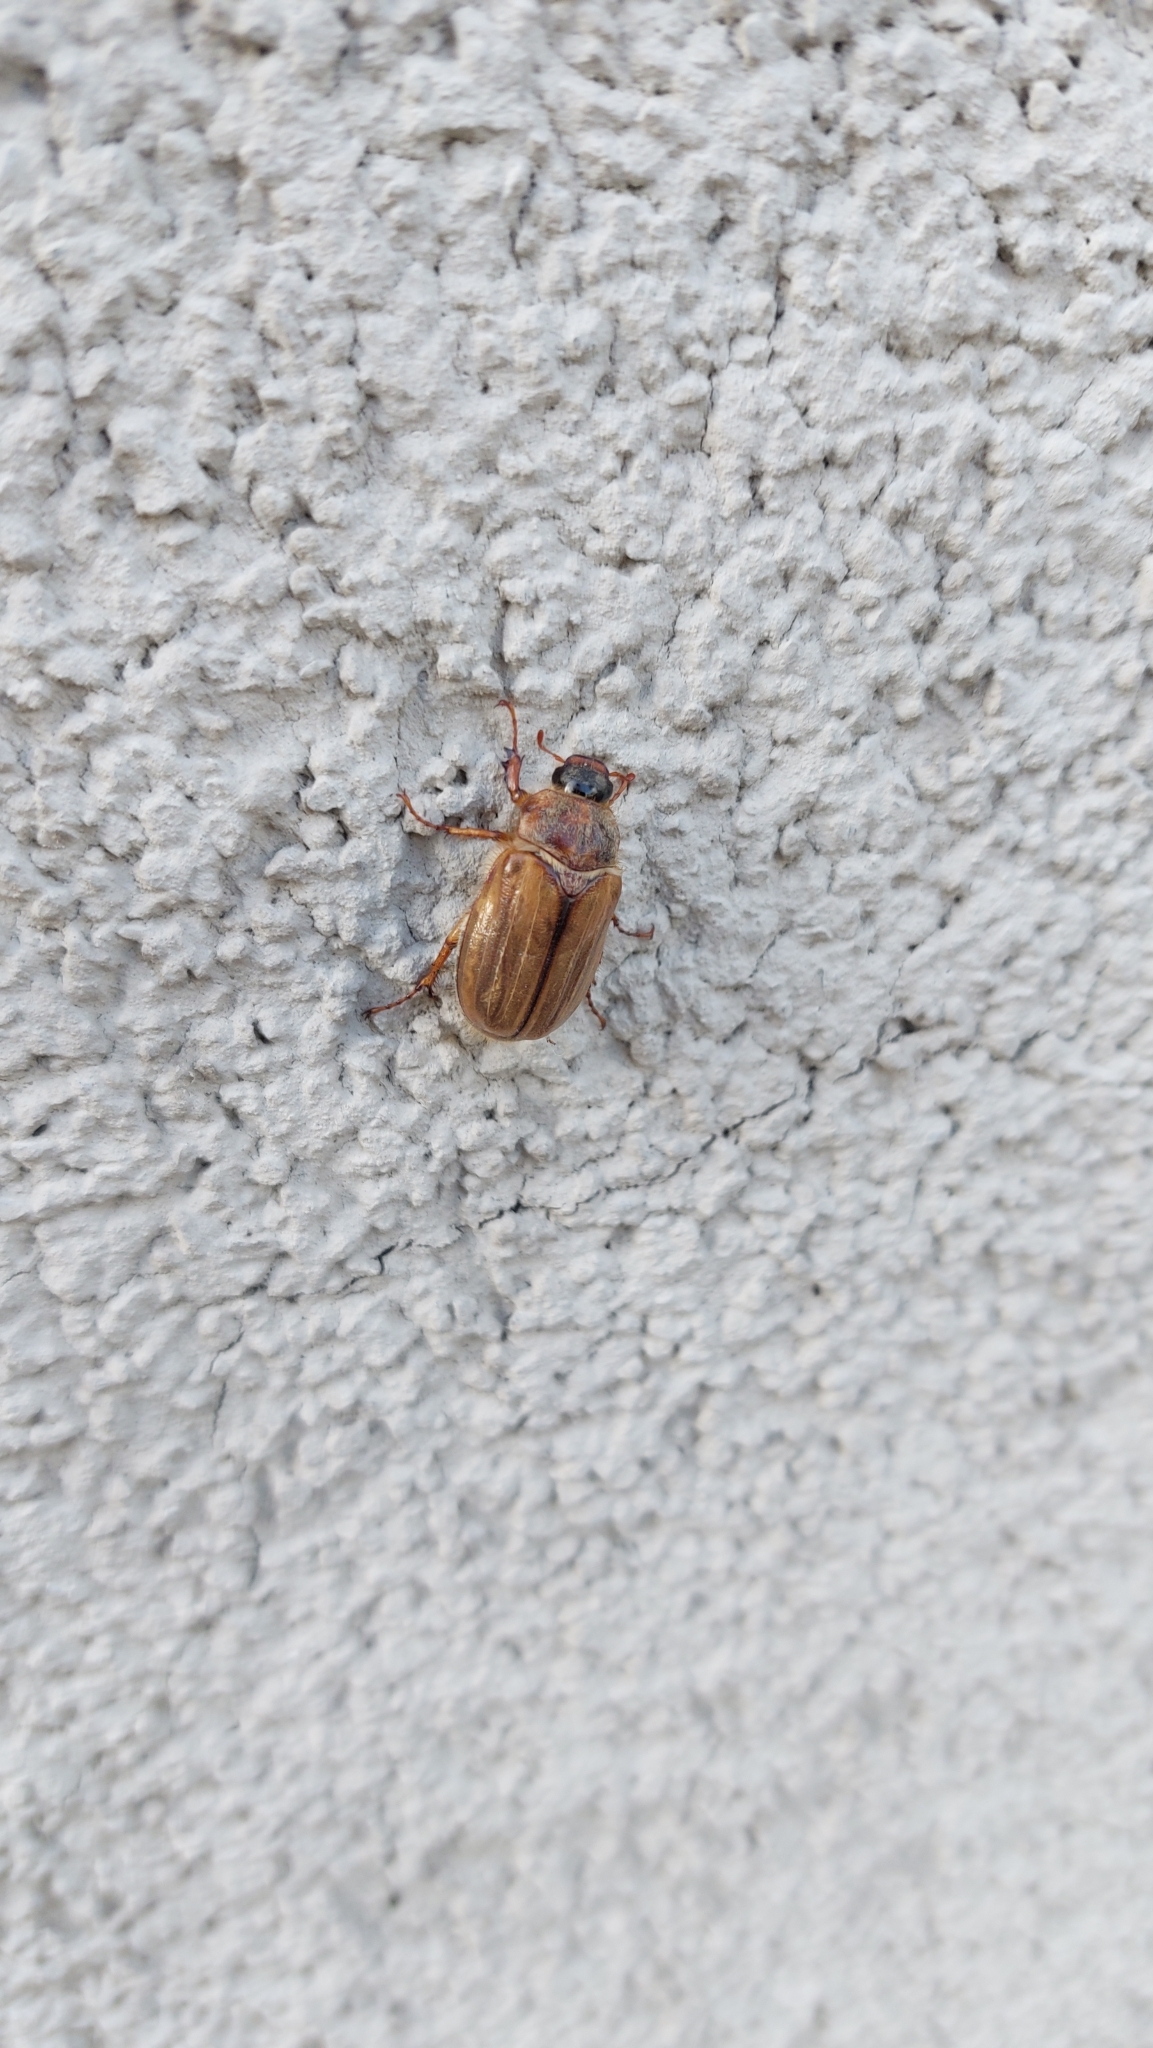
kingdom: Animalia
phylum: Arthropoda
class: Insecta
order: Coleoptera
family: Scarabaeidae
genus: Amphimallon
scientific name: Amphimallon solstitiale
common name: Summer chafer
